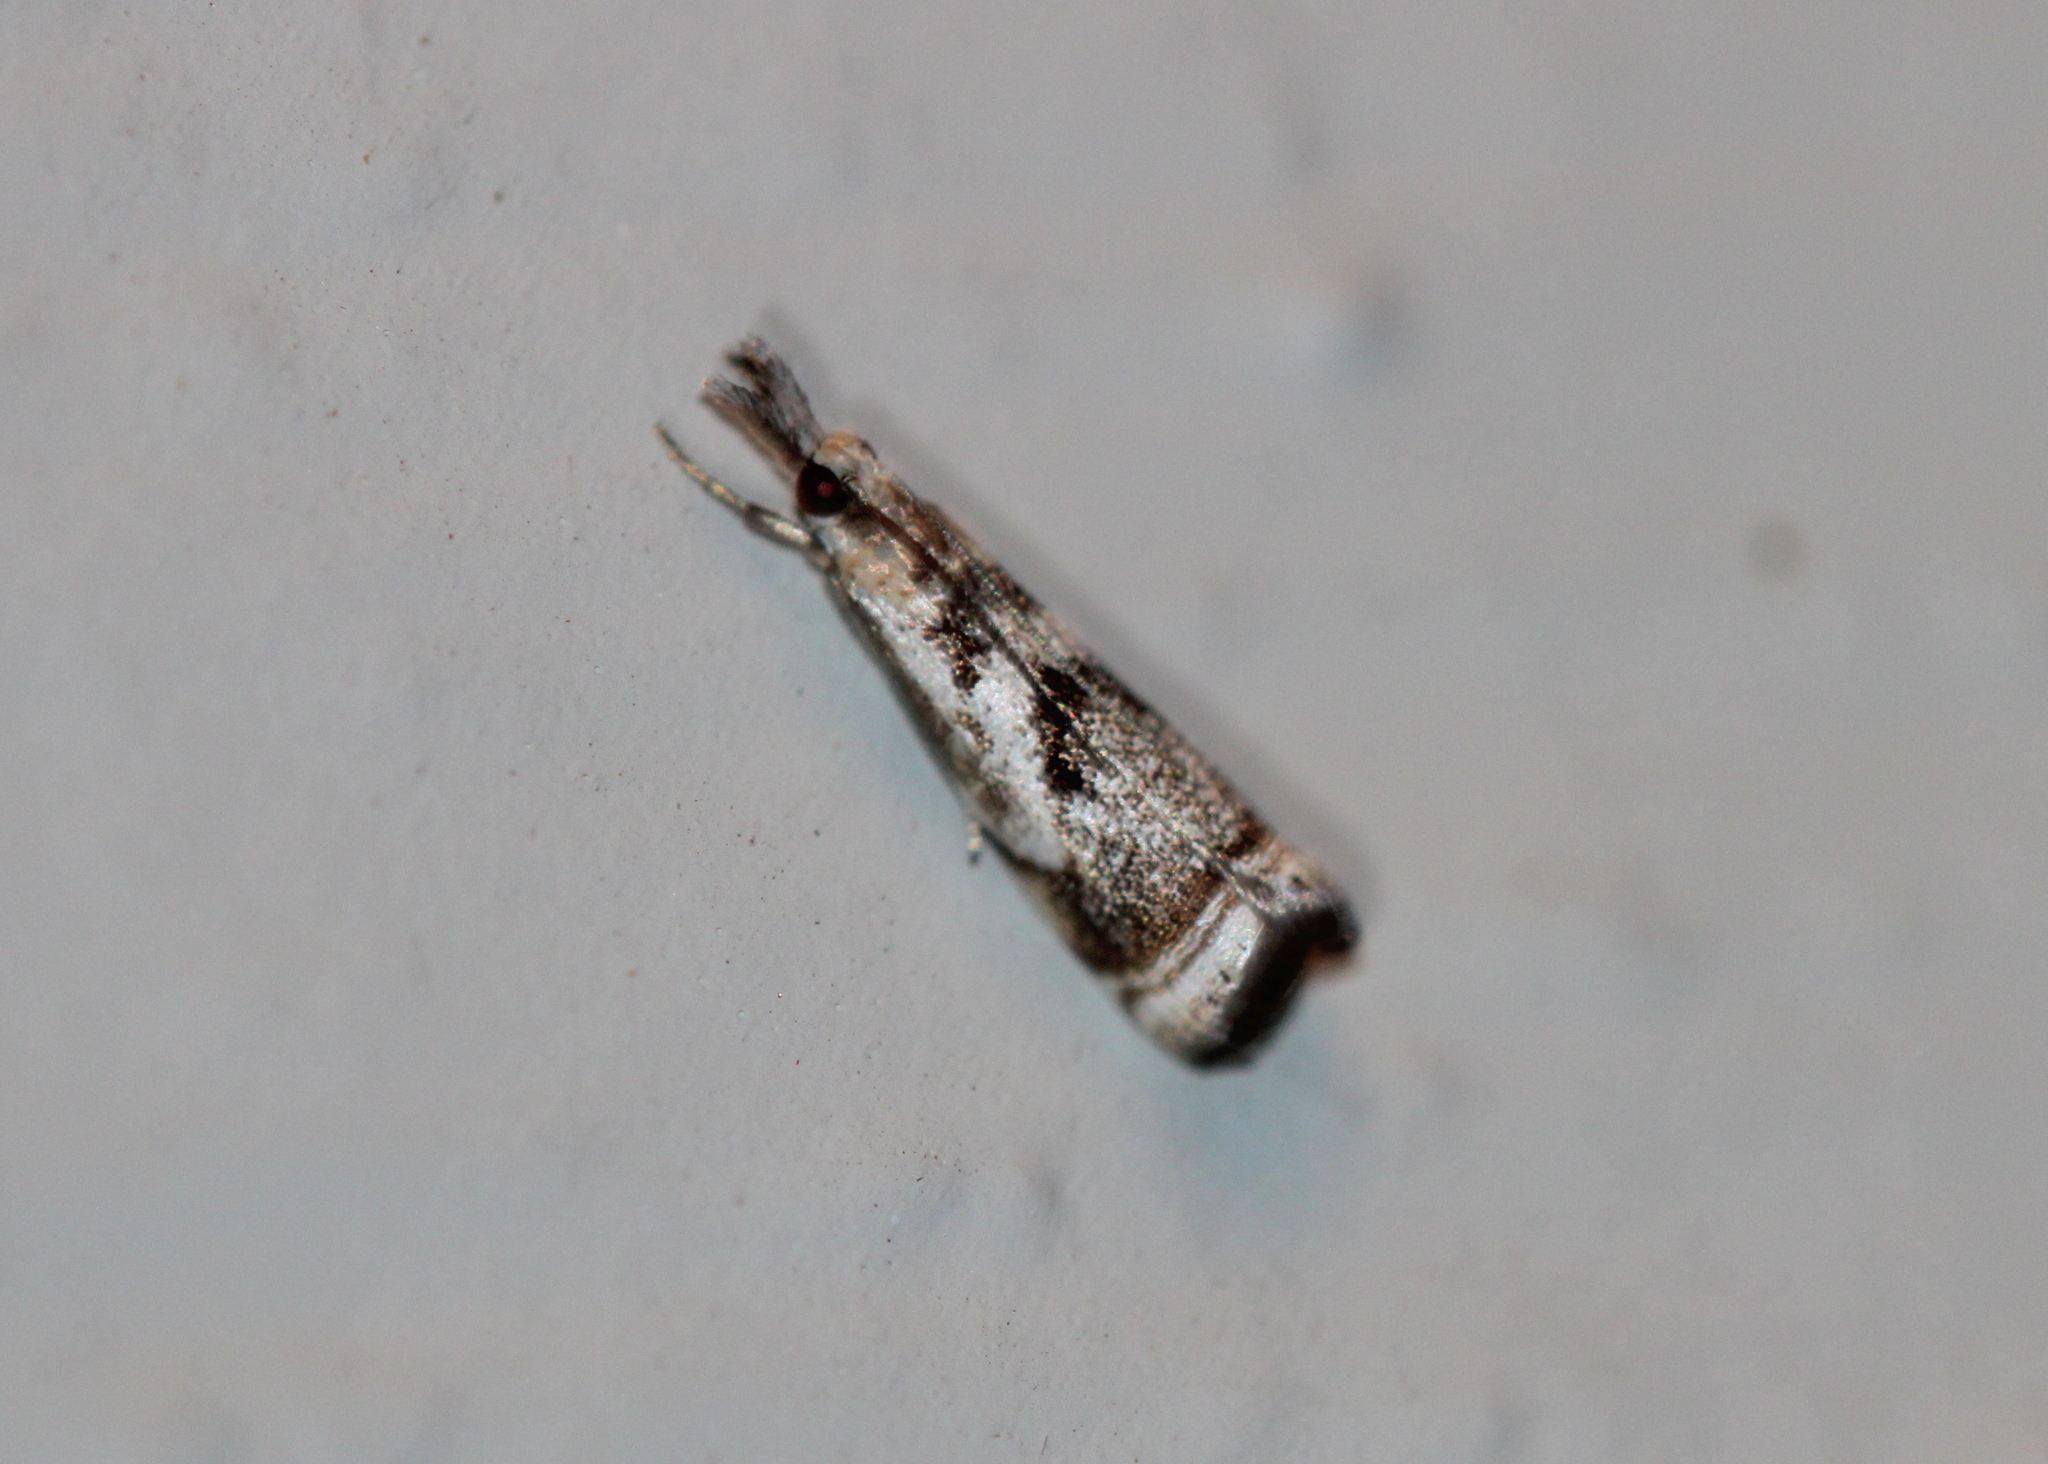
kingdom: Animalia
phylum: Arthropoda
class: Insecta
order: Lepidoptera
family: Crambidae
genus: Microcrambus
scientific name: Microcrambus elegans
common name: Elegant grass-veneer
